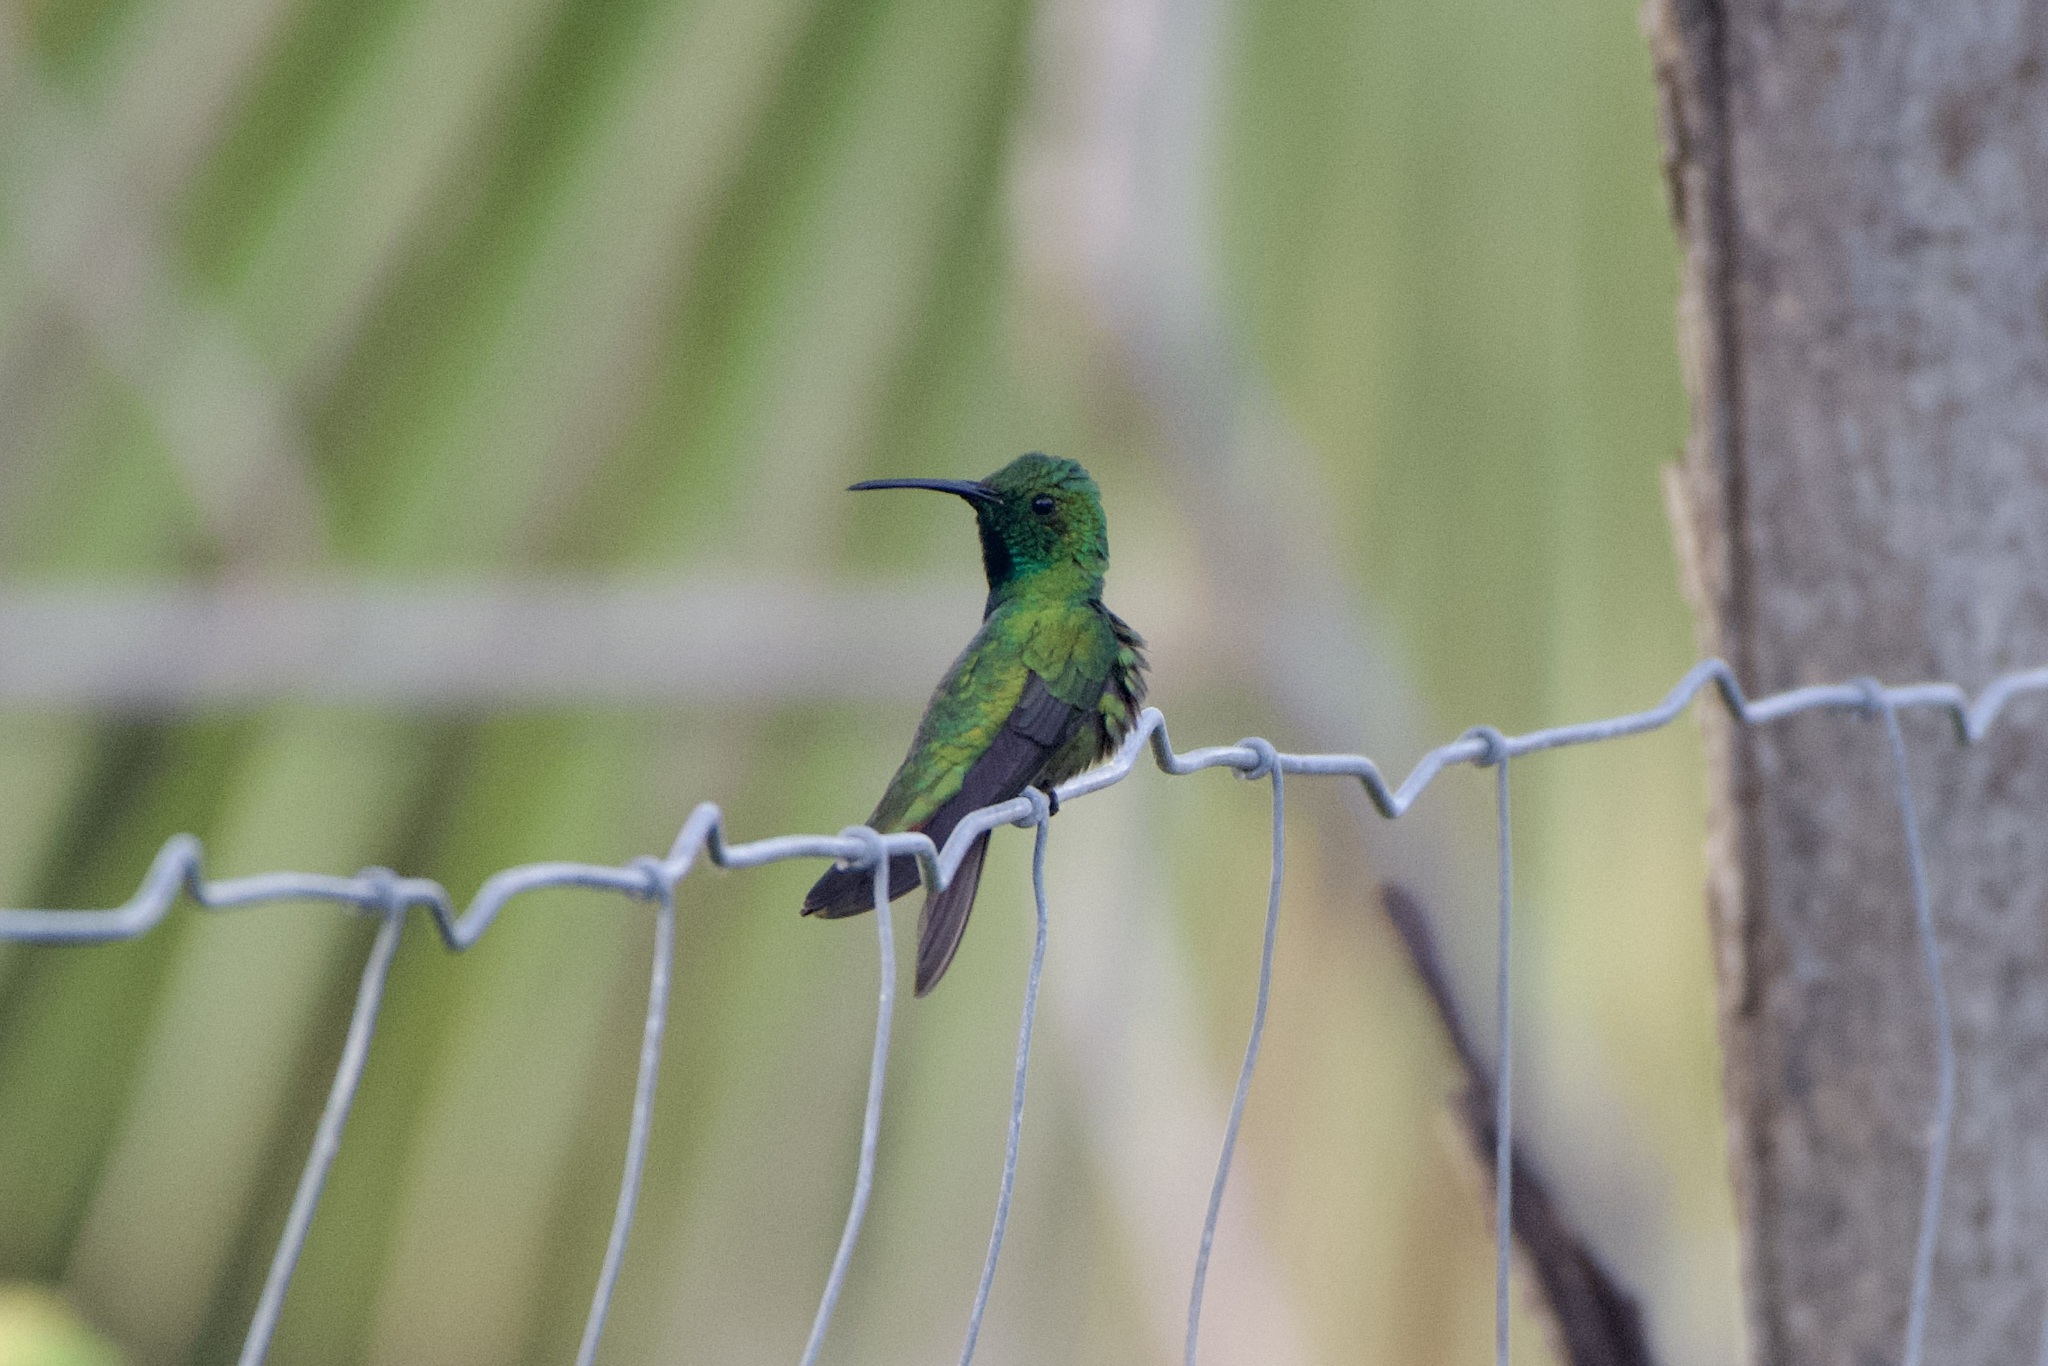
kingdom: Animalia
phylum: Chordata
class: Aves
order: Apodiformes
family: Trochilidae
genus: Anthracothorax
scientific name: Anthracothorax prevostii
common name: Green-breasted mango
